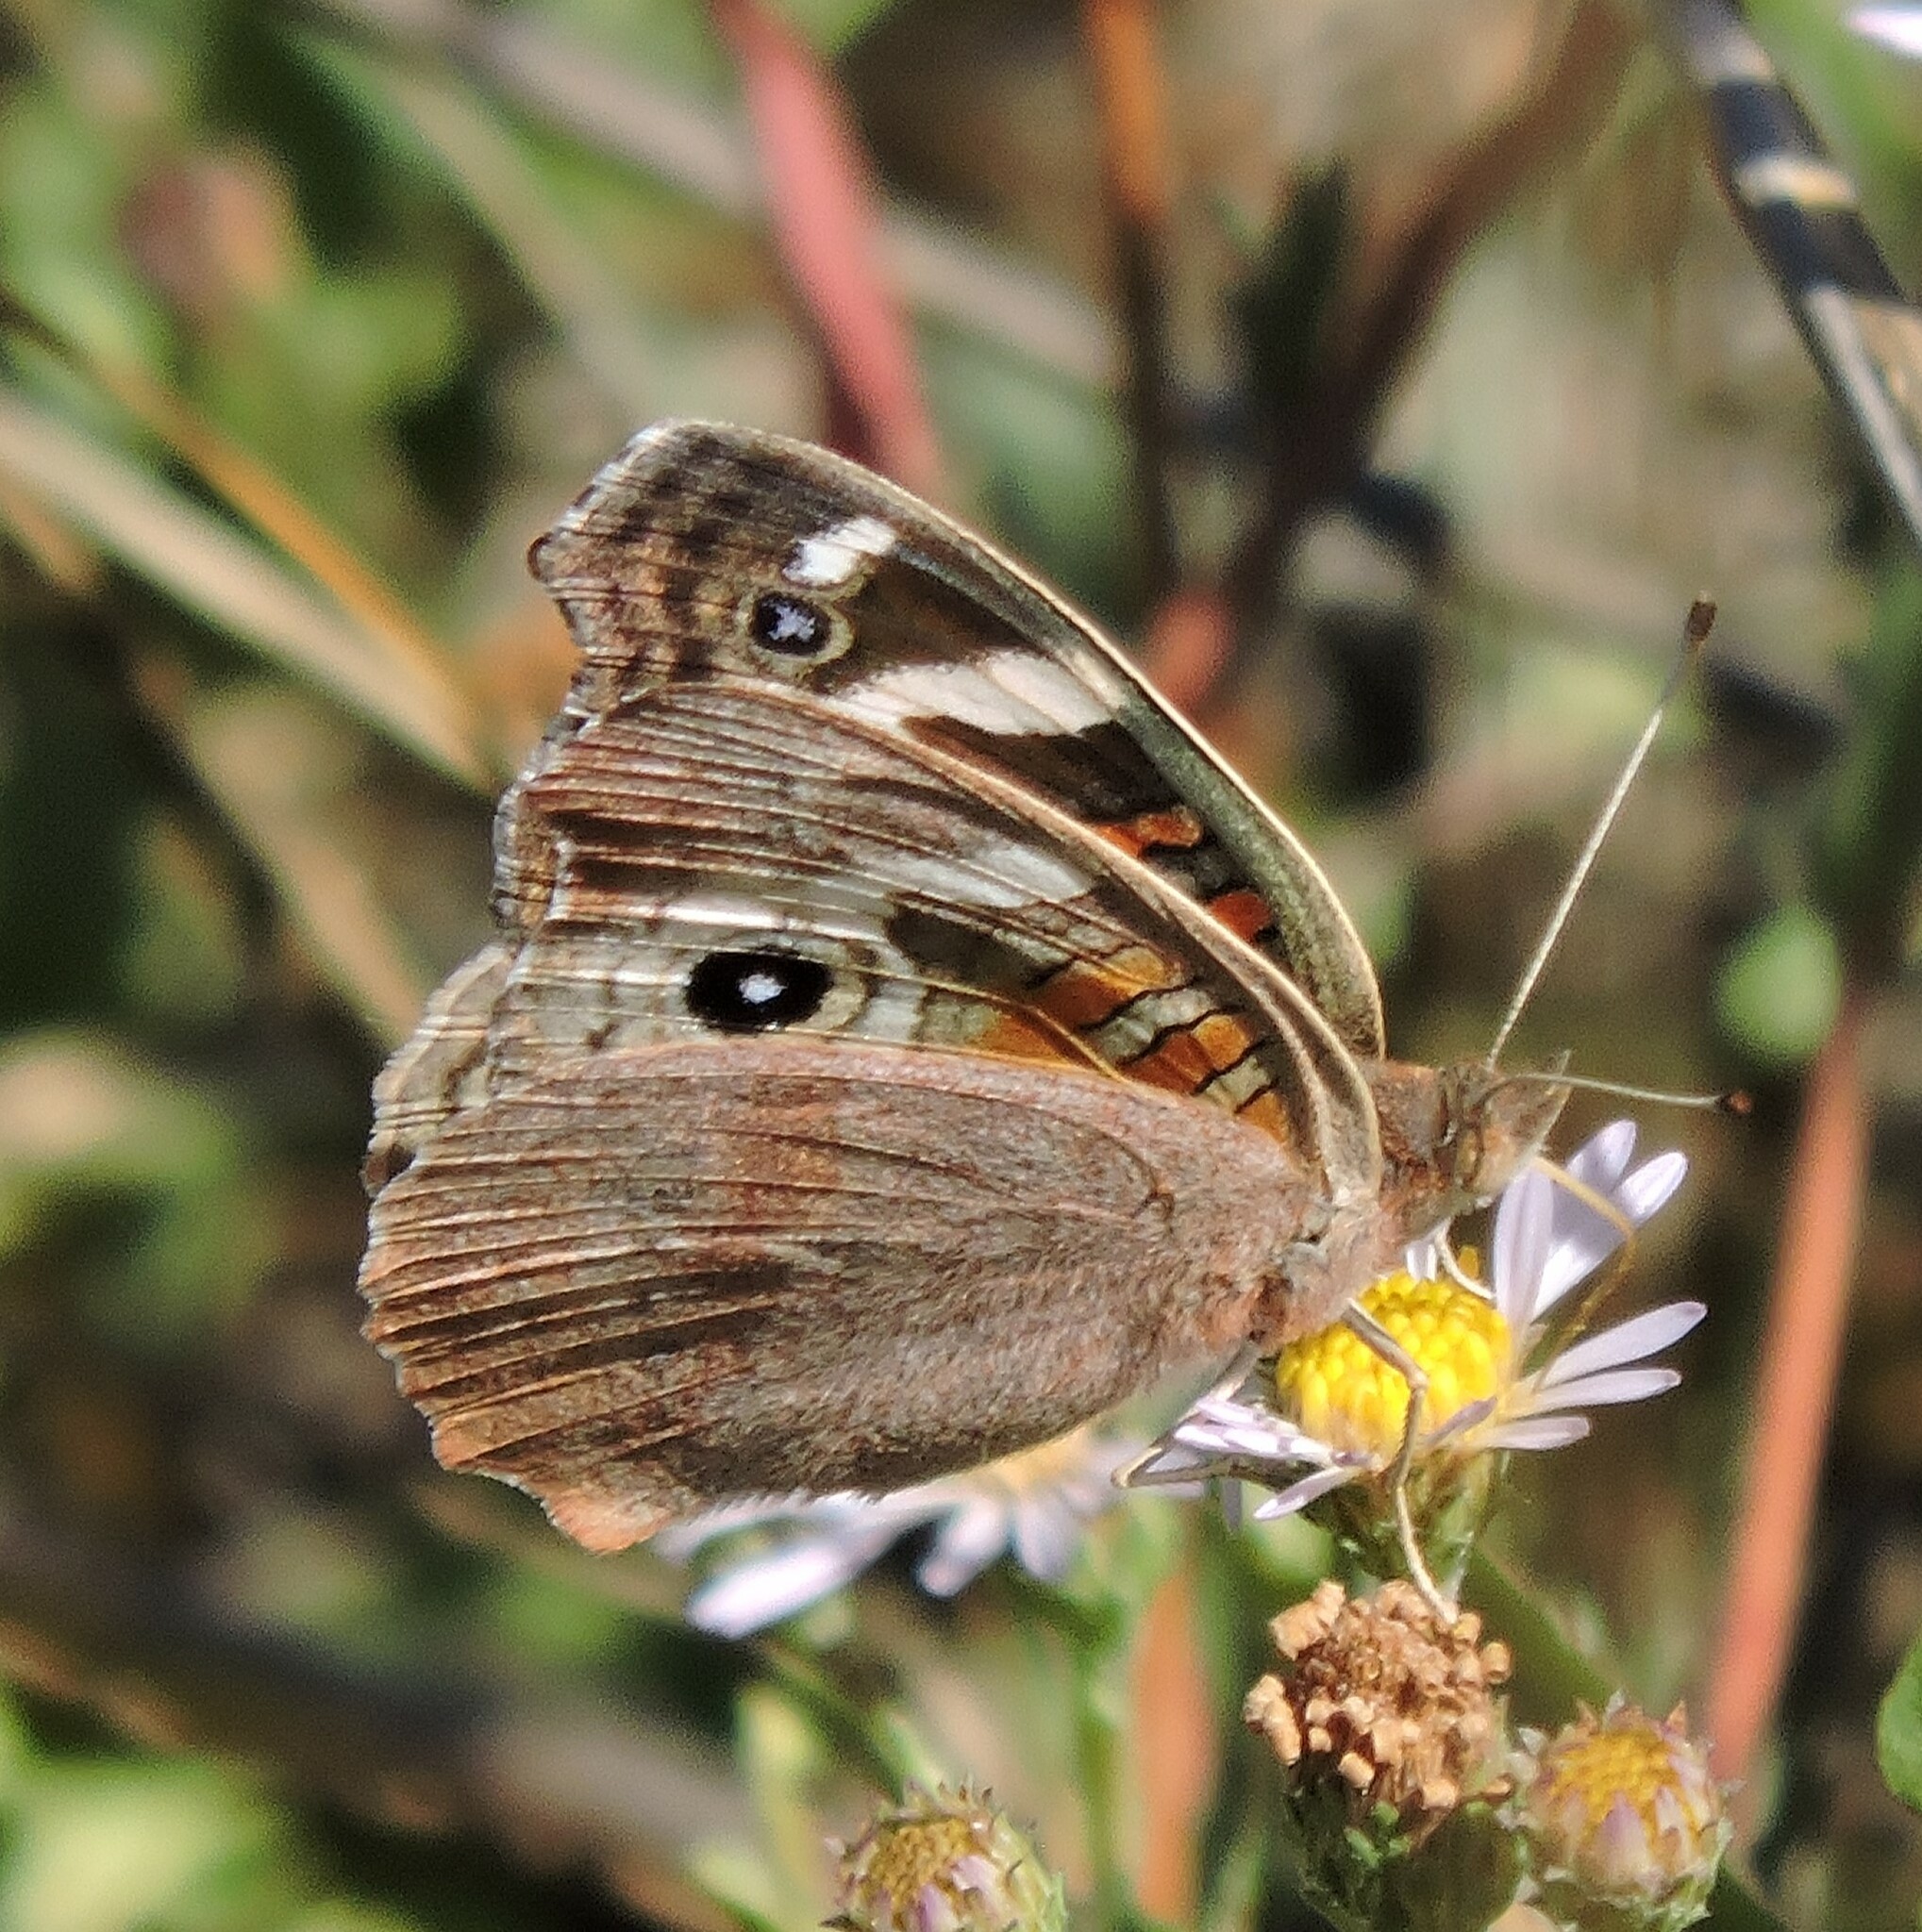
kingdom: Animalia
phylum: Arthropoda
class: Insecta
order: Lepidoptera
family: Nymphalidae
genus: Junonia
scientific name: Junonia grisea
